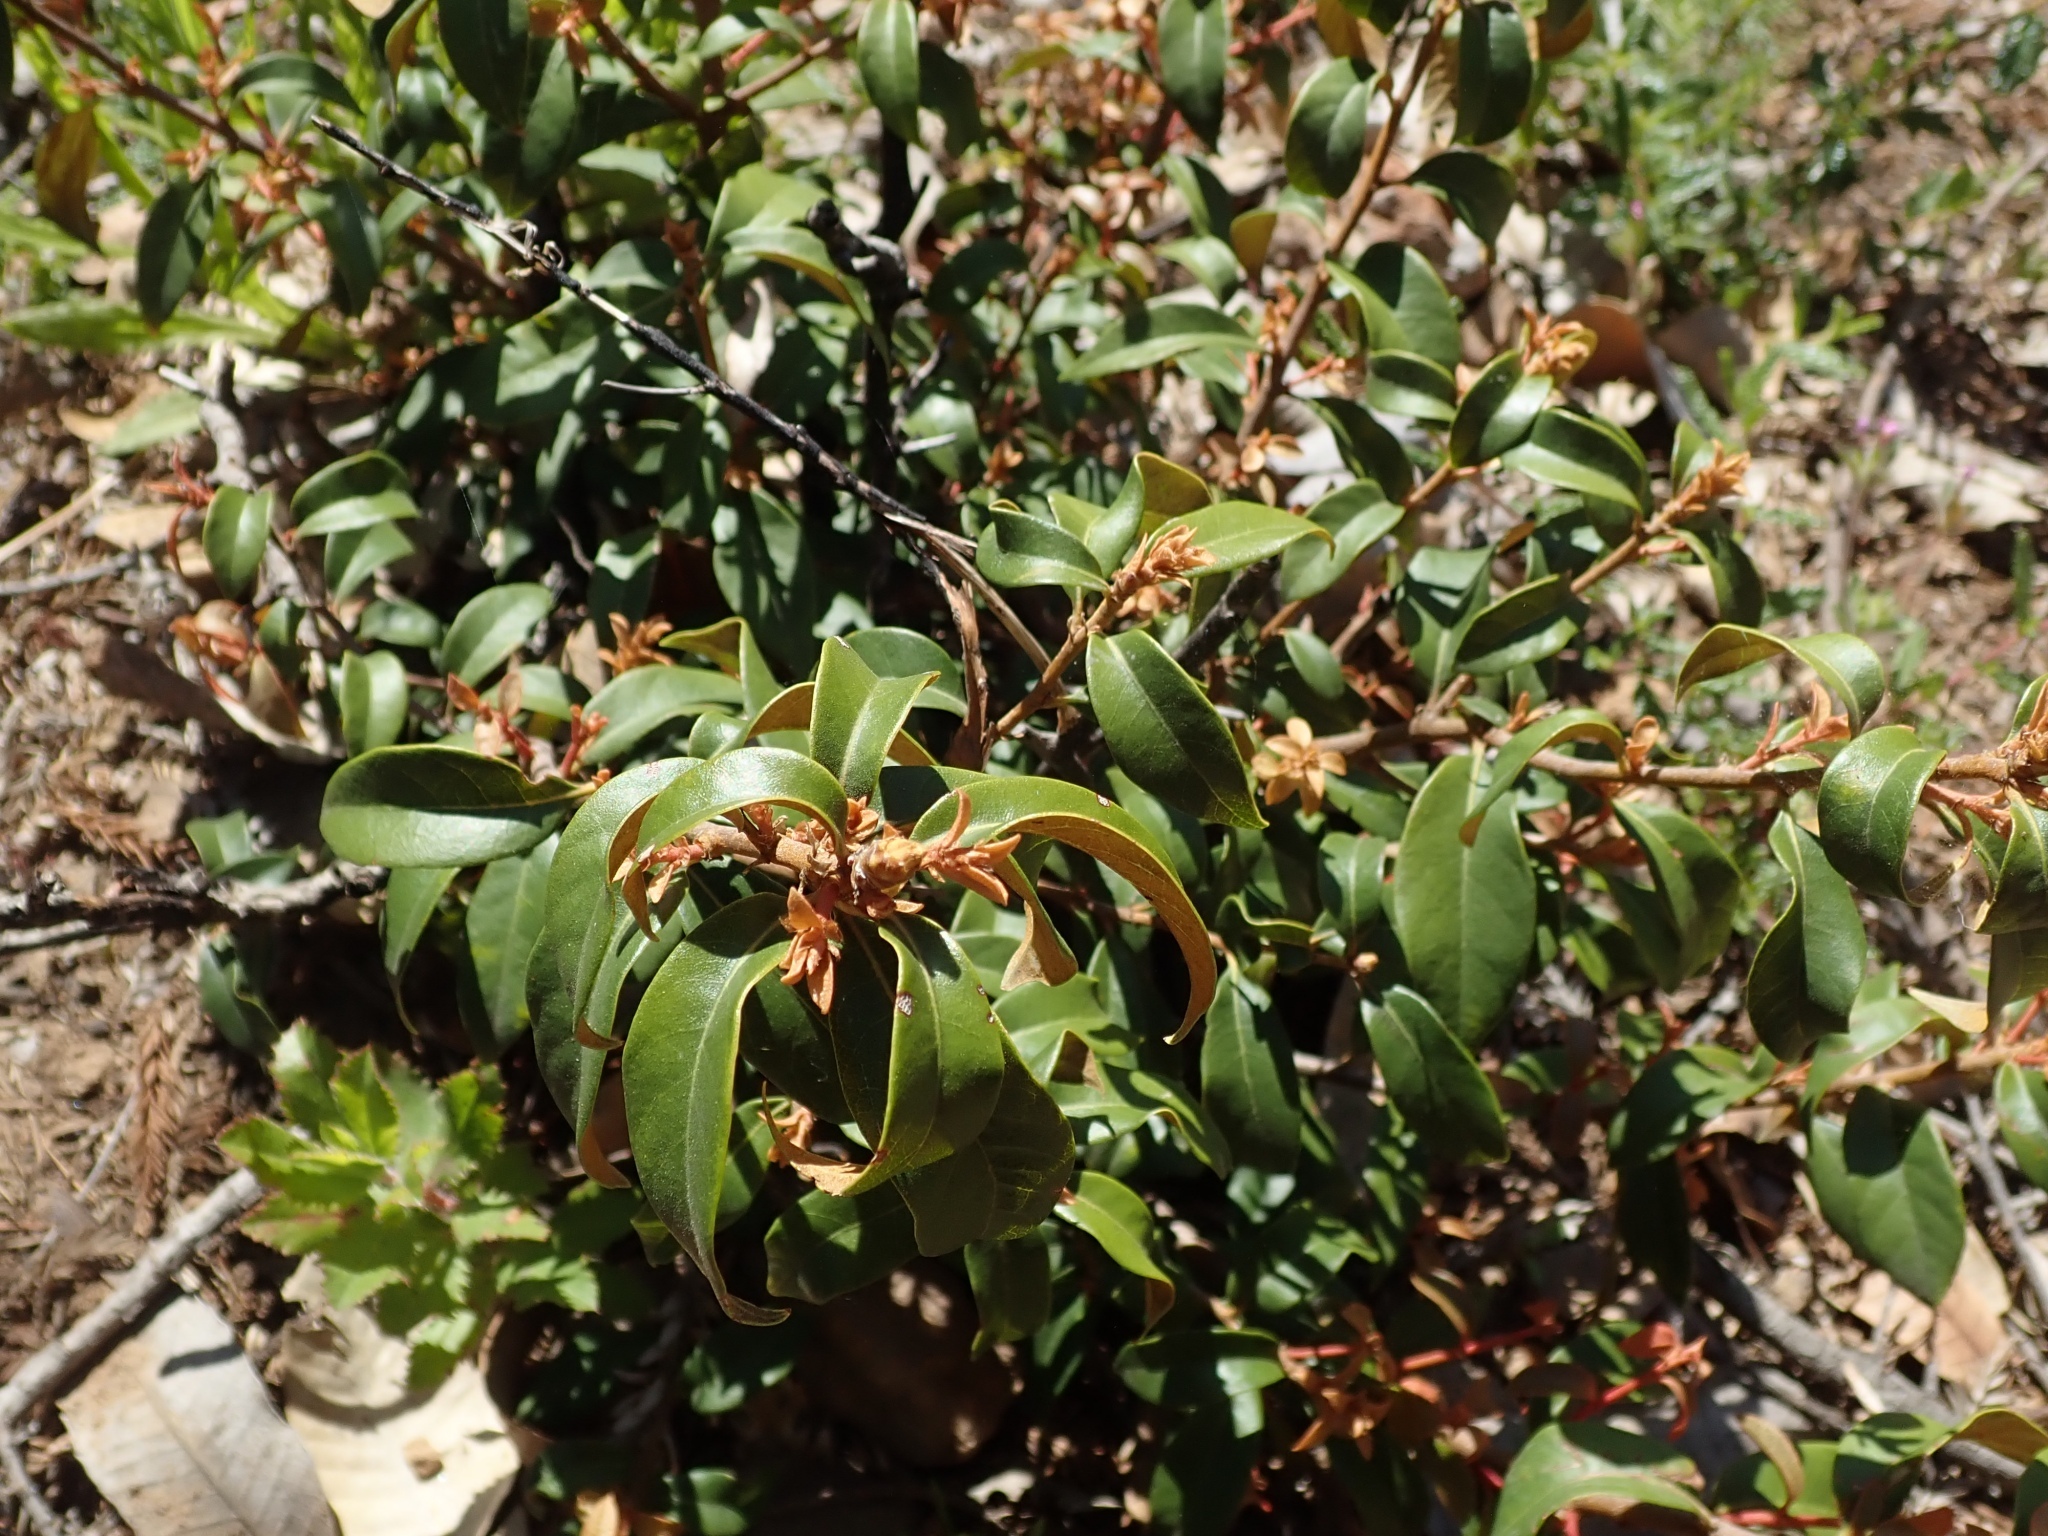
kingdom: Plantae
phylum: Tracheophyta
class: Magnoliopsida
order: Fagales
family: Fagaceae
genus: Chrysolepis
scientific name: Chrysolepis chrysophylla
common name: Giant chinquapin
